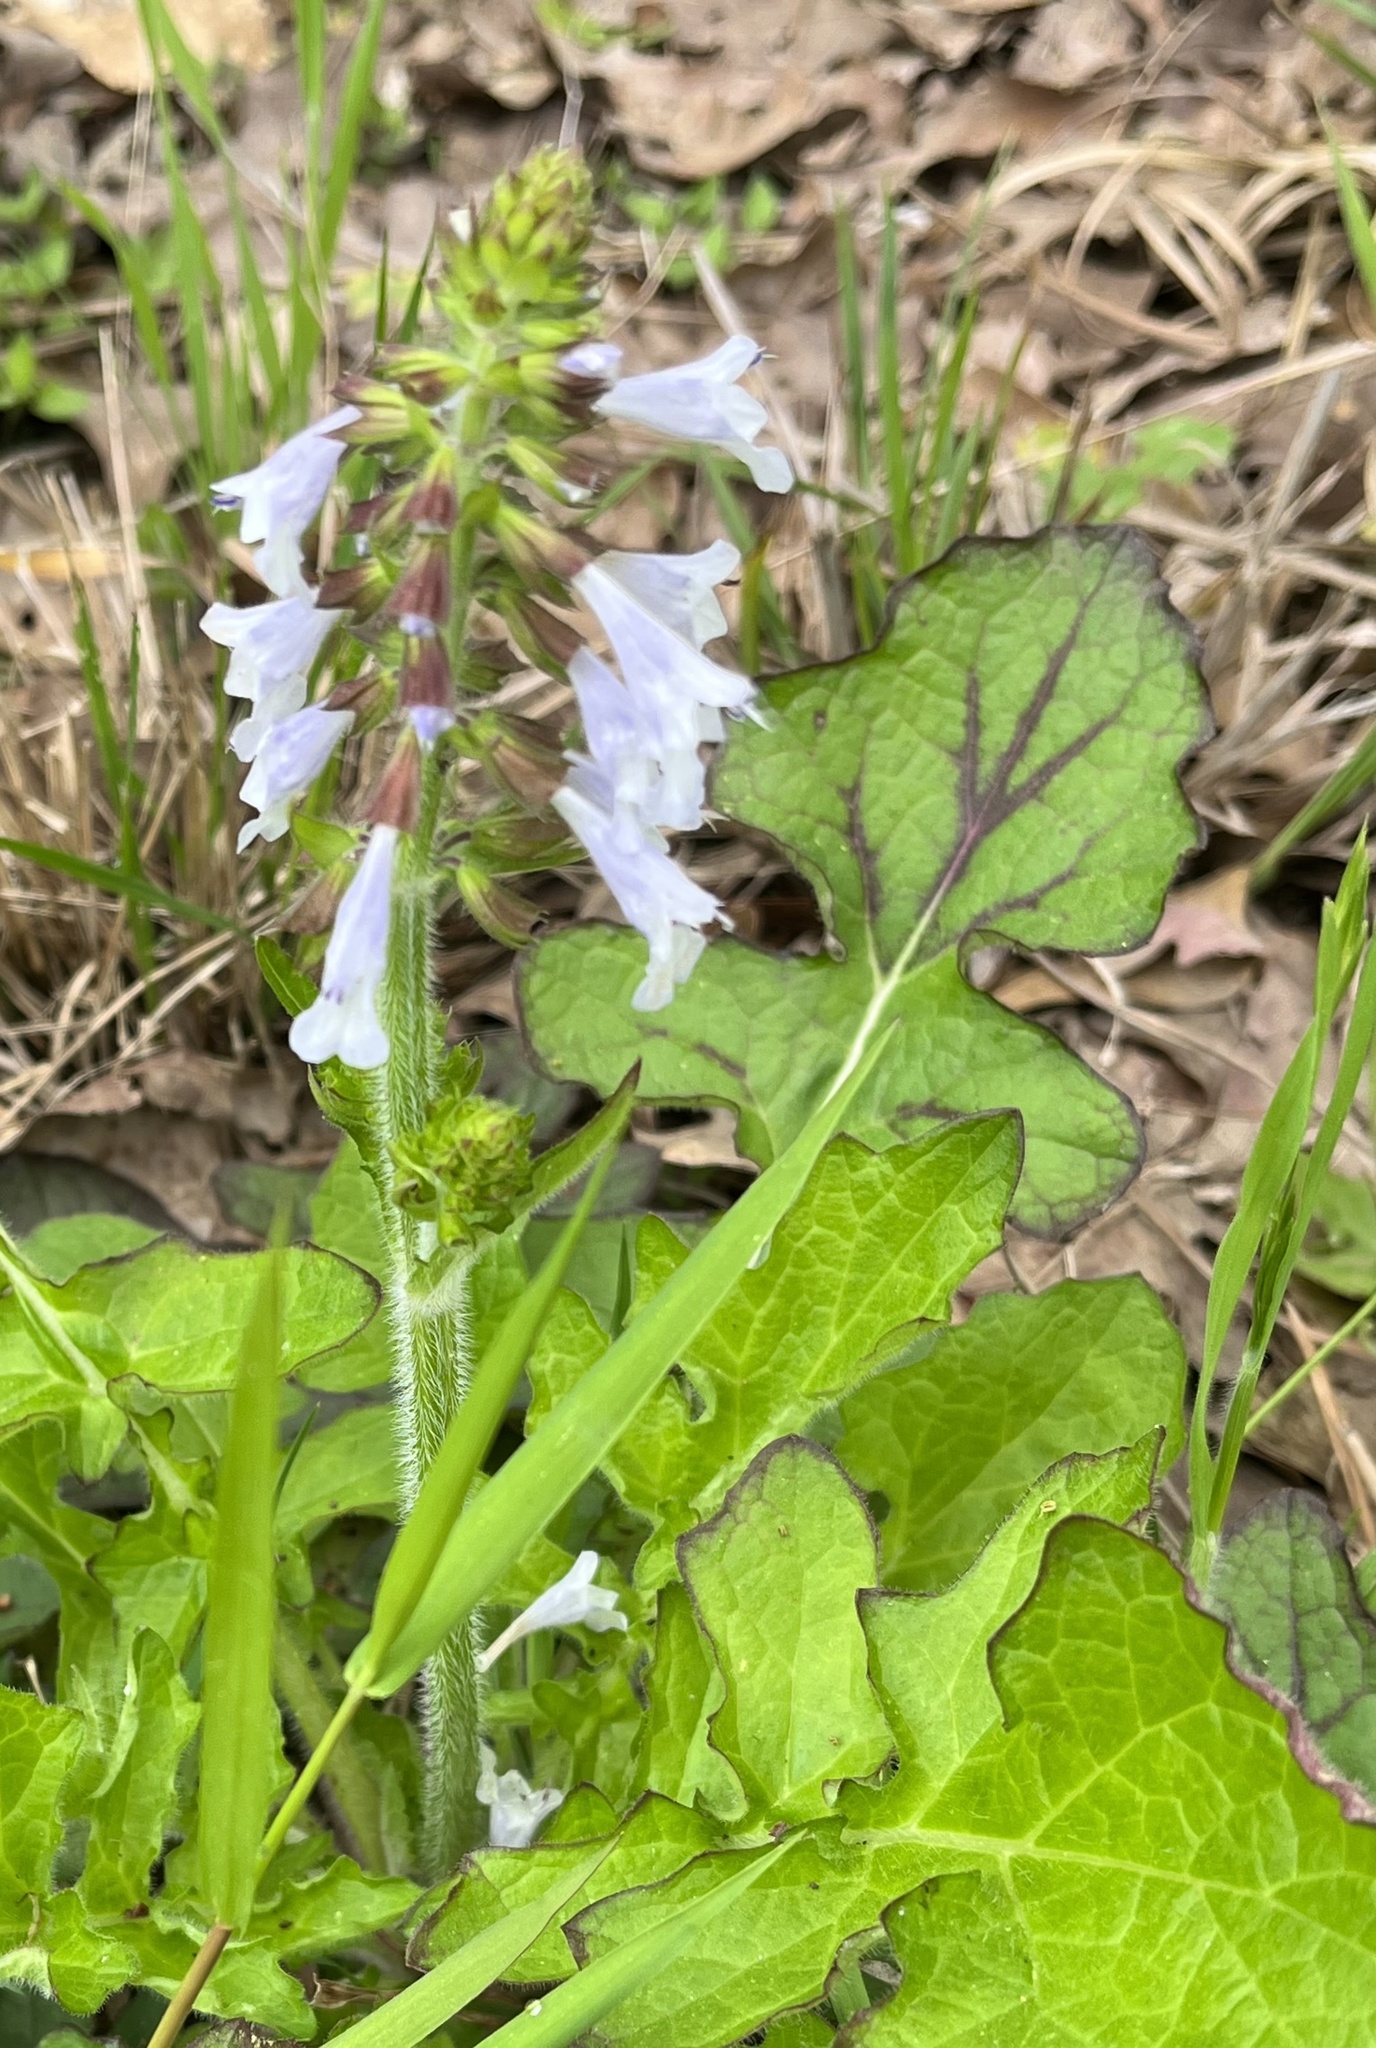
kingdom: Plantae
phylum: Tracheophyta
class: Magnoliopsida
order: Lamiales
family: Lamiaceae
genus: Salvia
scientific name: Salvia lyrata
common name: Cancerweed
